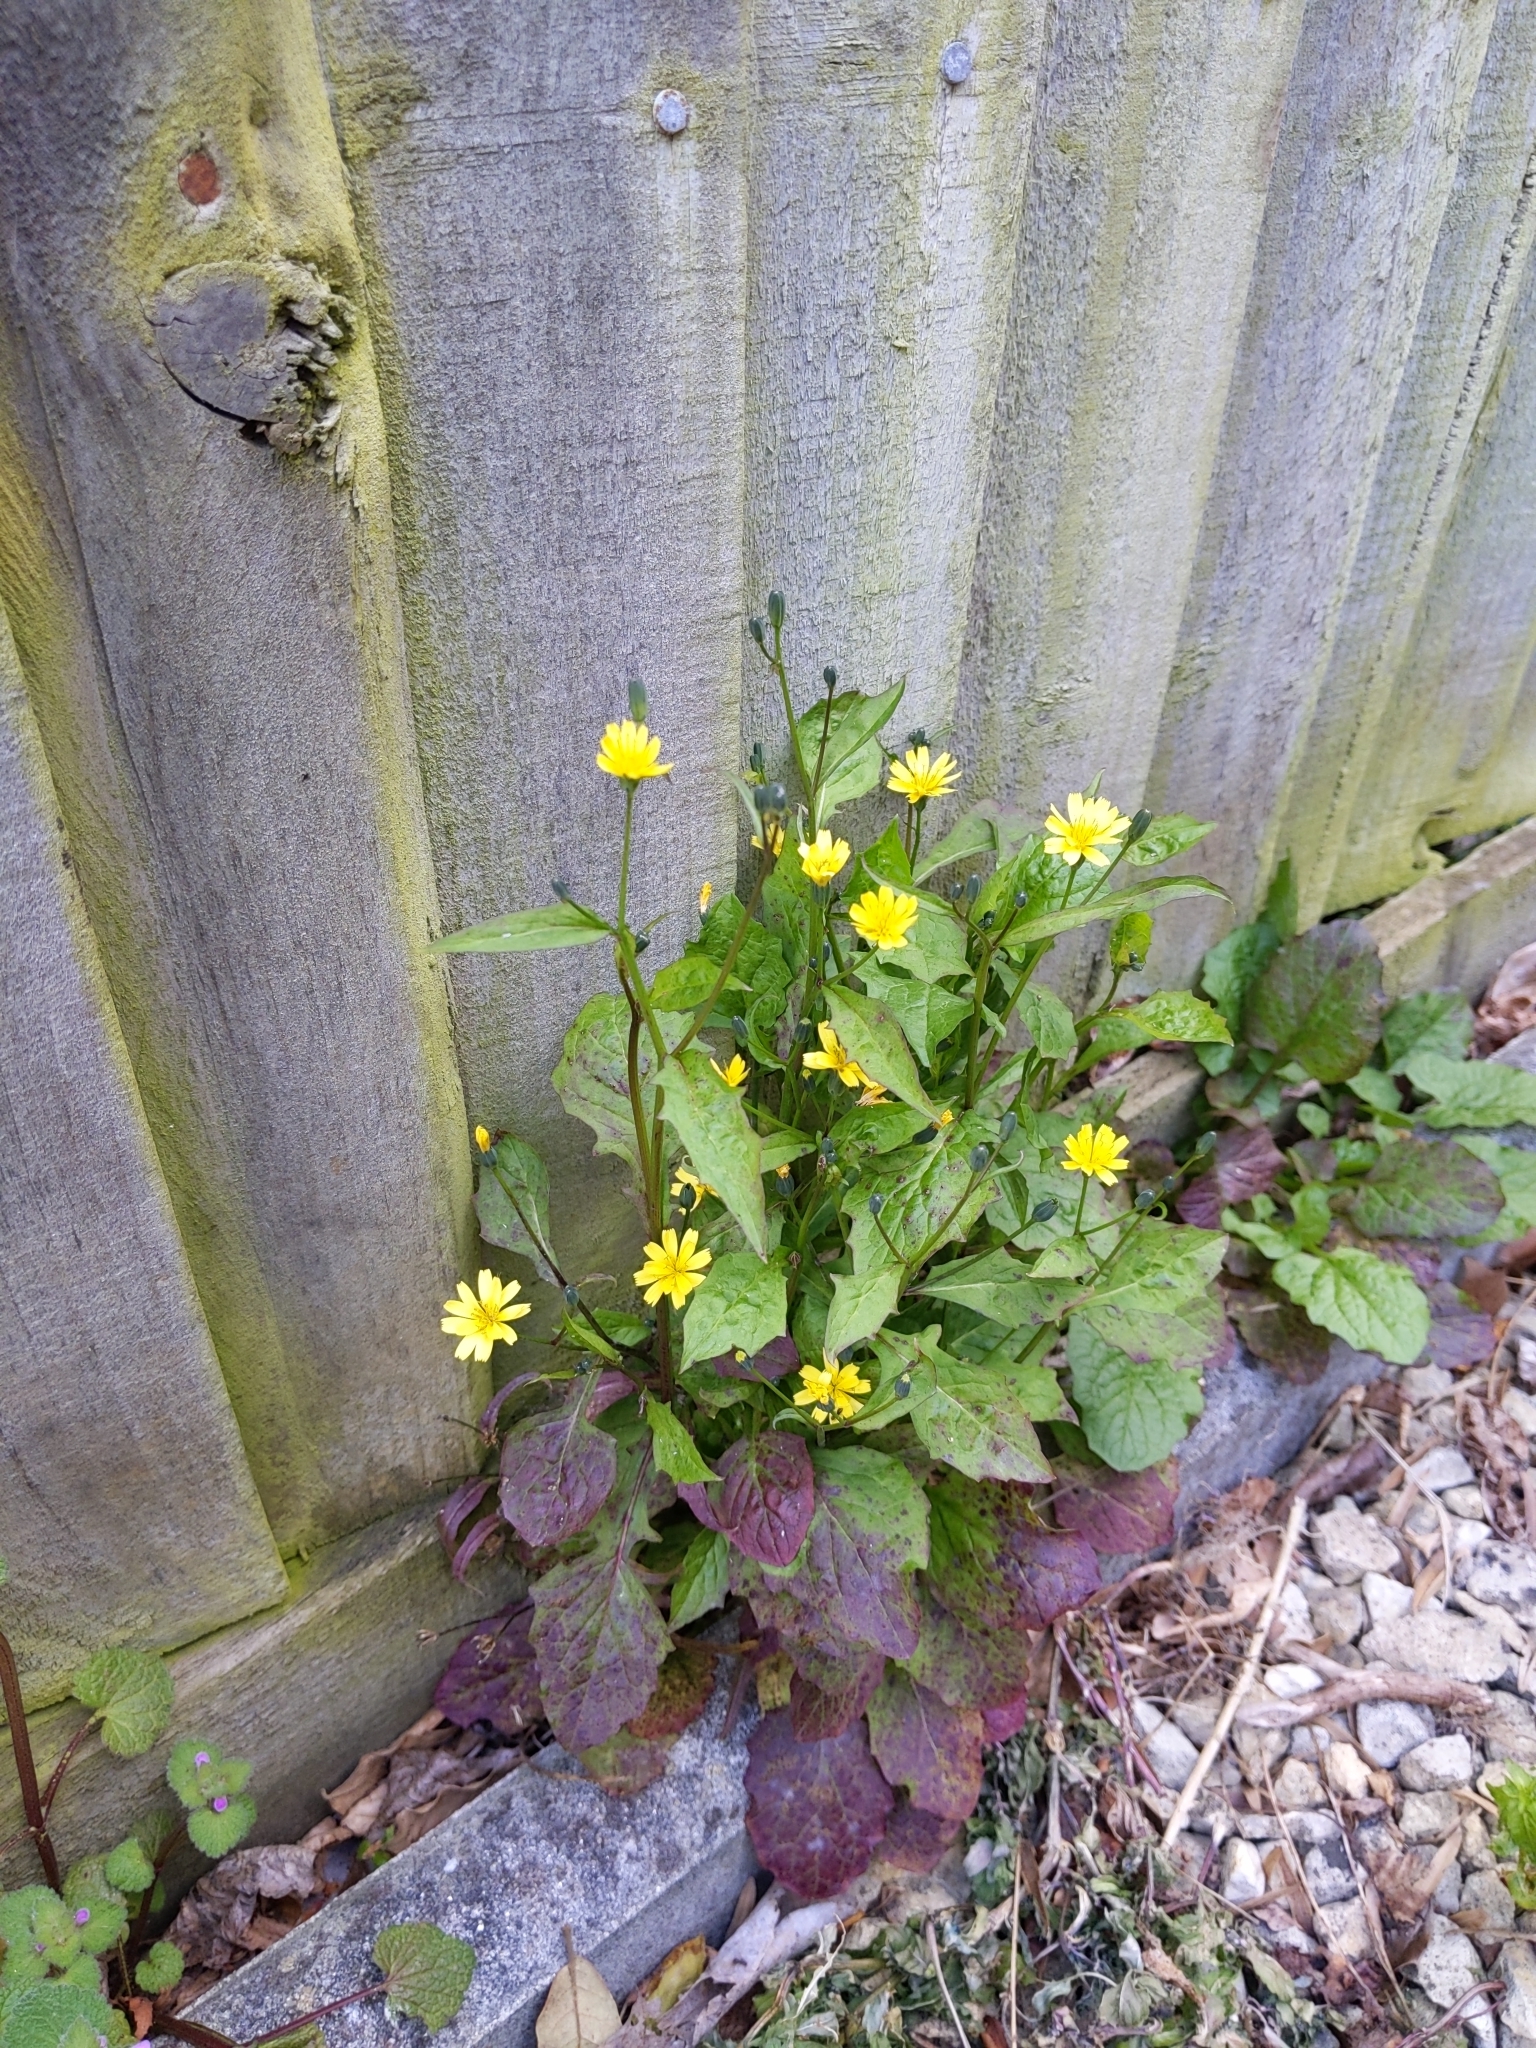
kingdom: Plantae
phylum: Tracheophyta
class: Magnoliopsida
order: Asterales
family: Asteraceae
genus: Lapsana
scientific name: Lapsana communis
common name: Nipplewort
